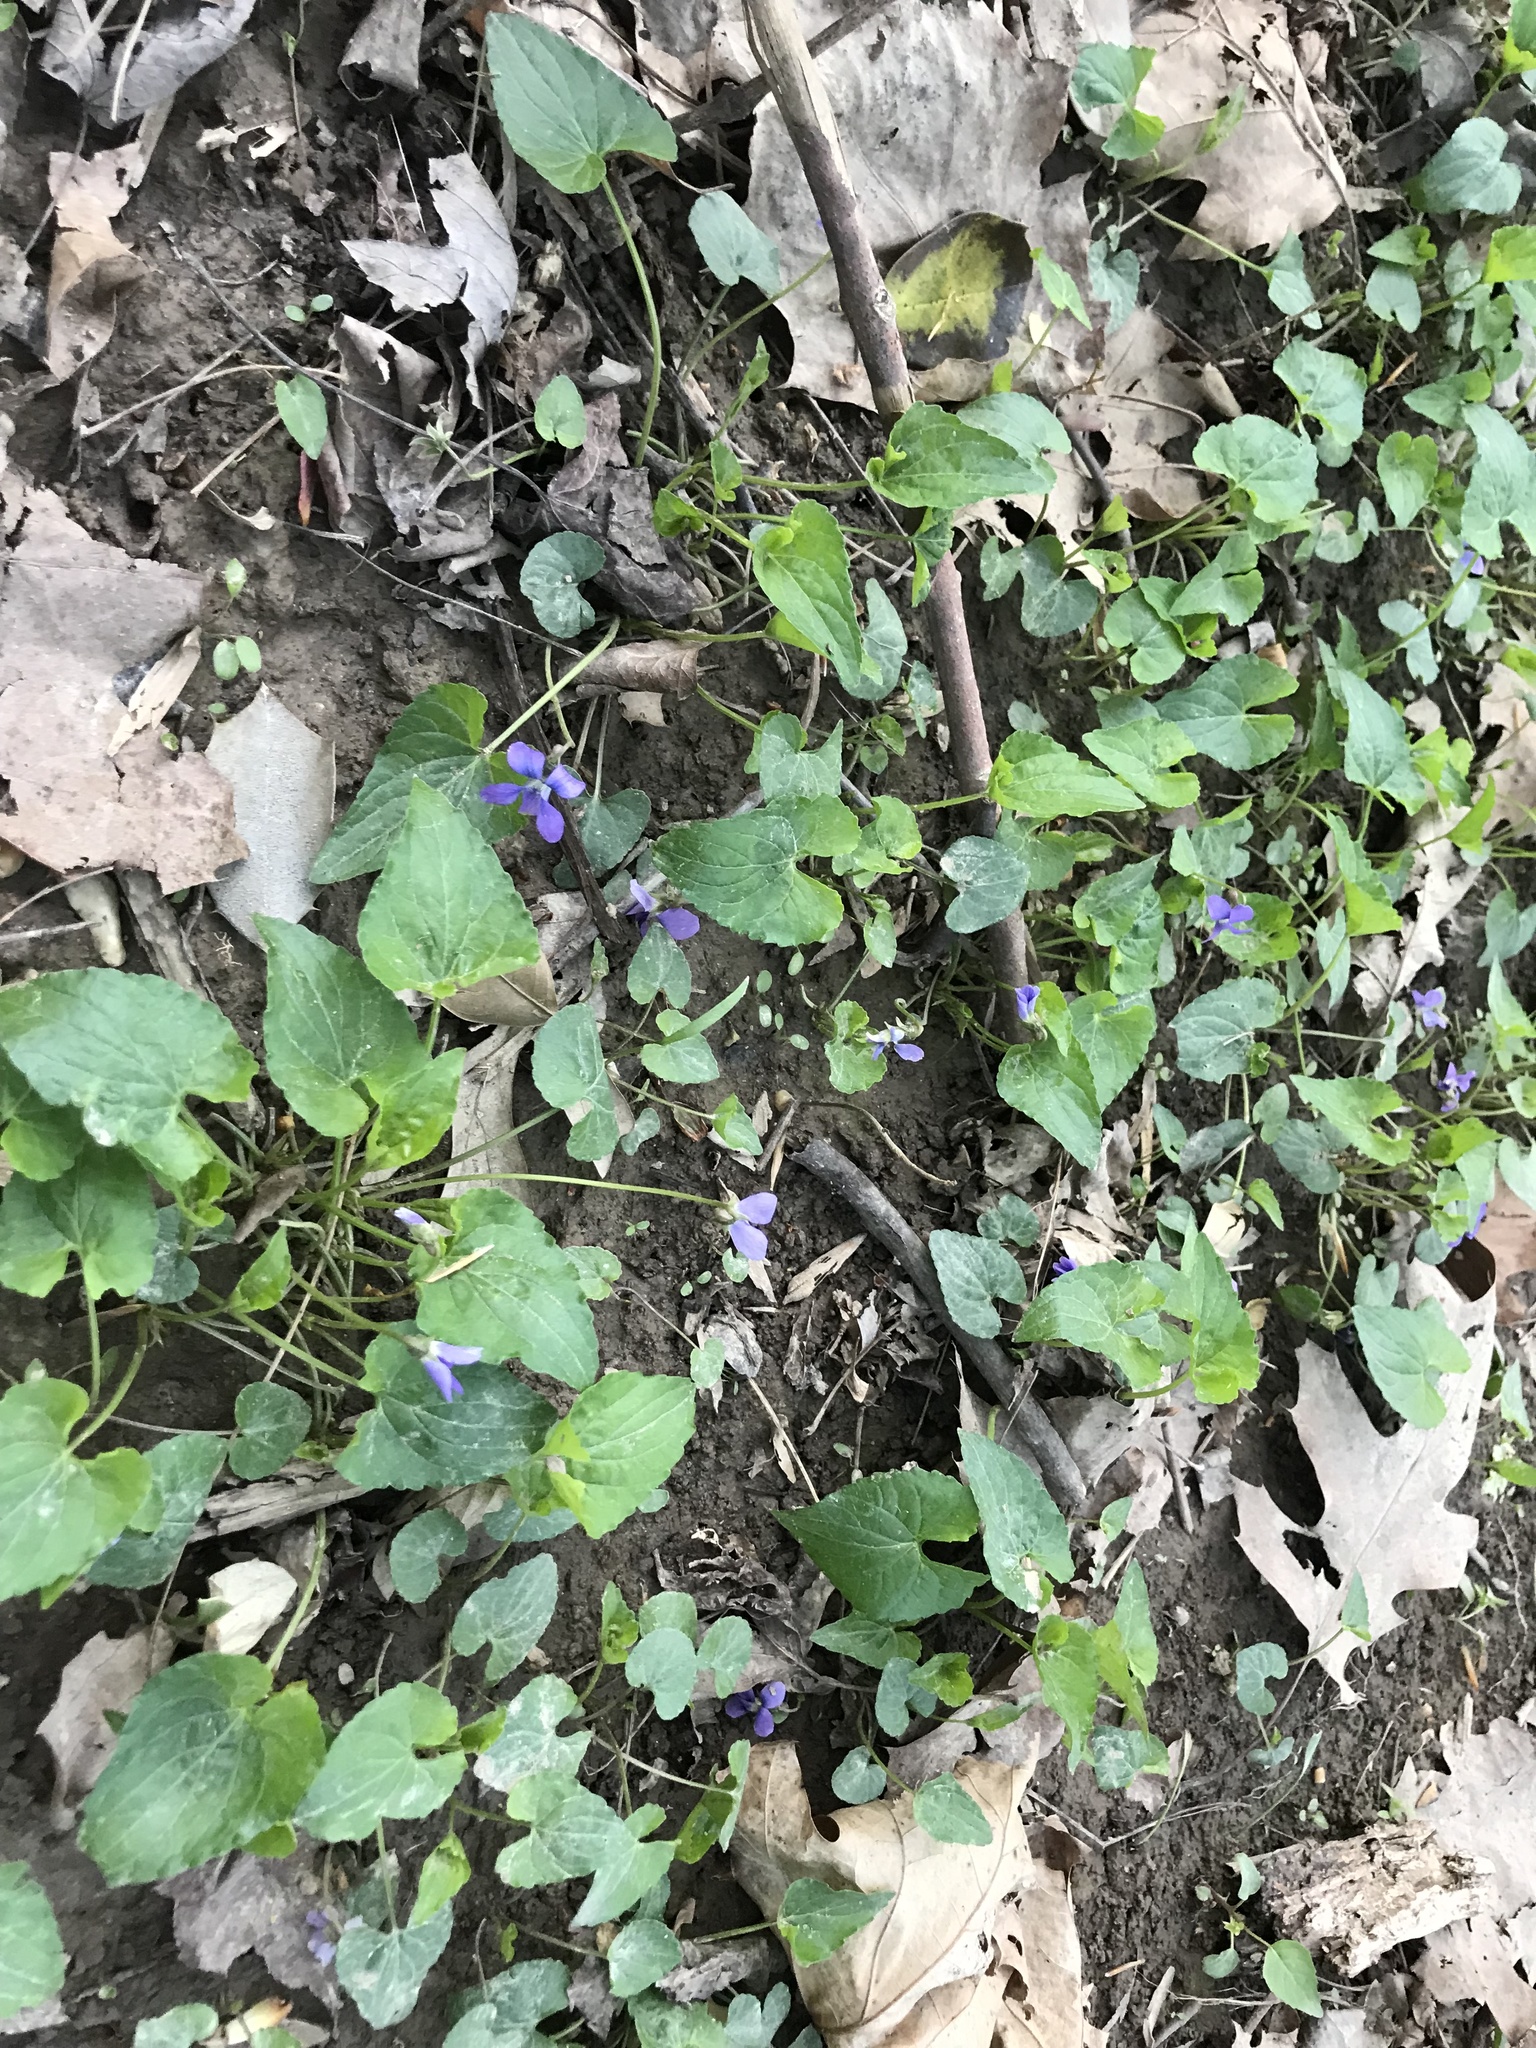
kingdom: Plantae
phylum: Tracheophyta
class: Magnoliopsida
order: Malpighiales
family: Violaceae
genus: Viola
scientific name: Viola sororia
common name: Dooryard violet
